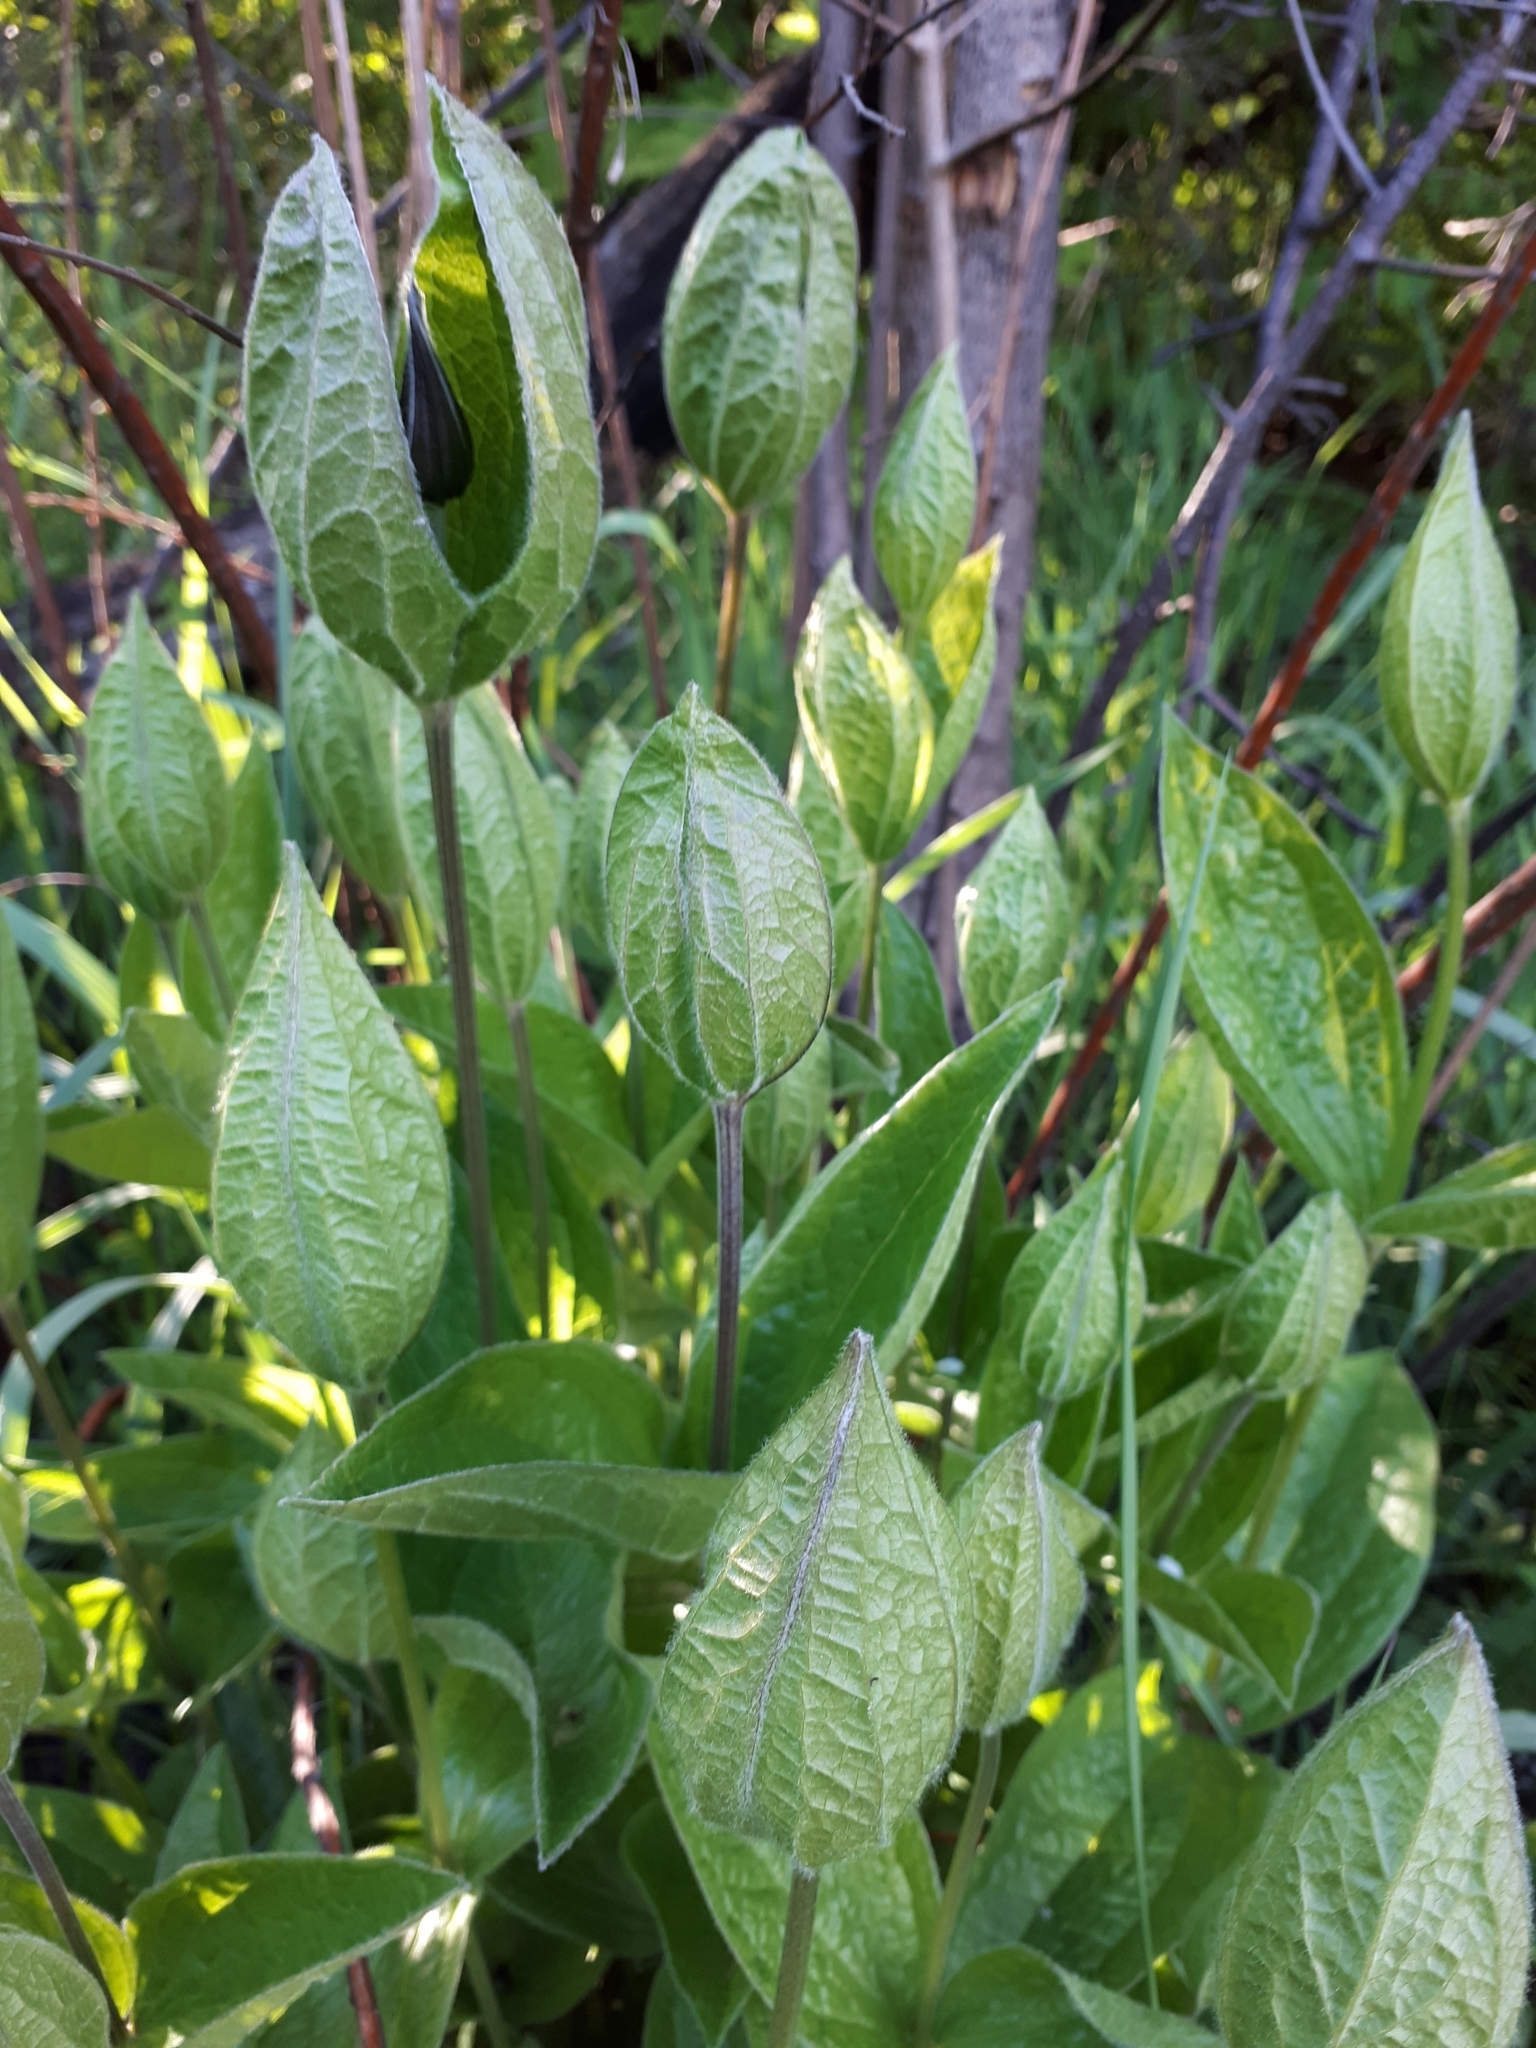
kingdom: Plantae
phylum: Tracheophyta
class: Magnoliopsida
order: Ranunculales
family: Ranunculaceae
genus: Clematis
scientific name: Clematis integrifolia
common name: Solitary clematis
